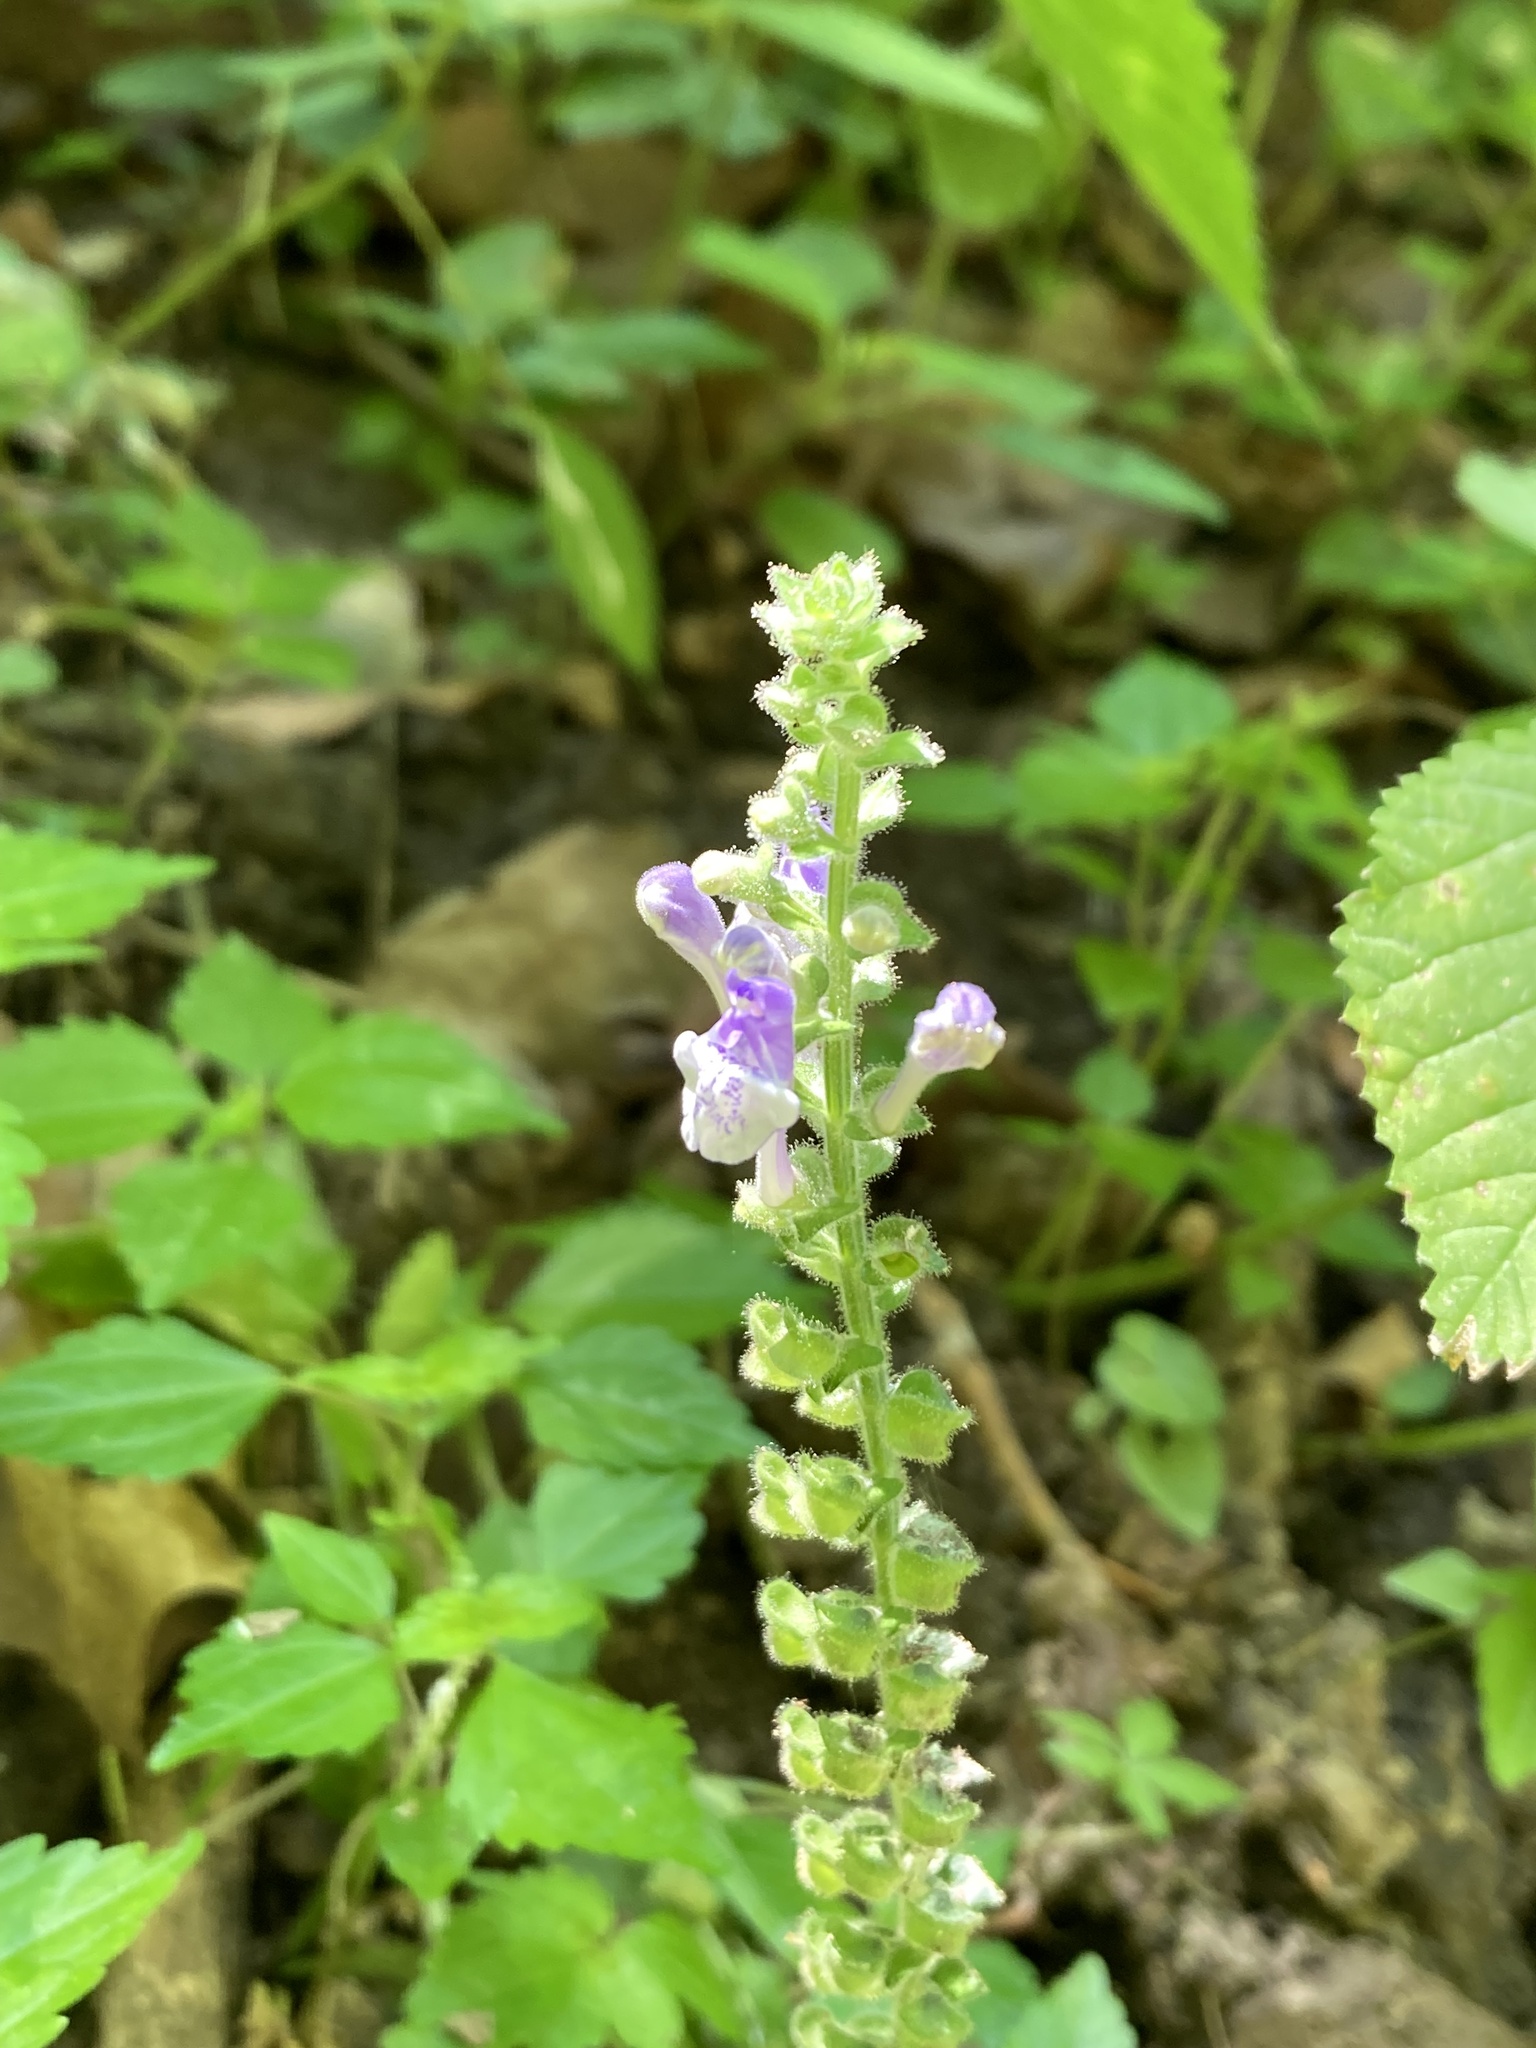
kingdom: Plantae
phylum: Tracheophyta
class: Magnoliopsida
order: Lamiales
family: Lamiaceae
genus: Scutellaria
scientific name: Scutellaria ovata
